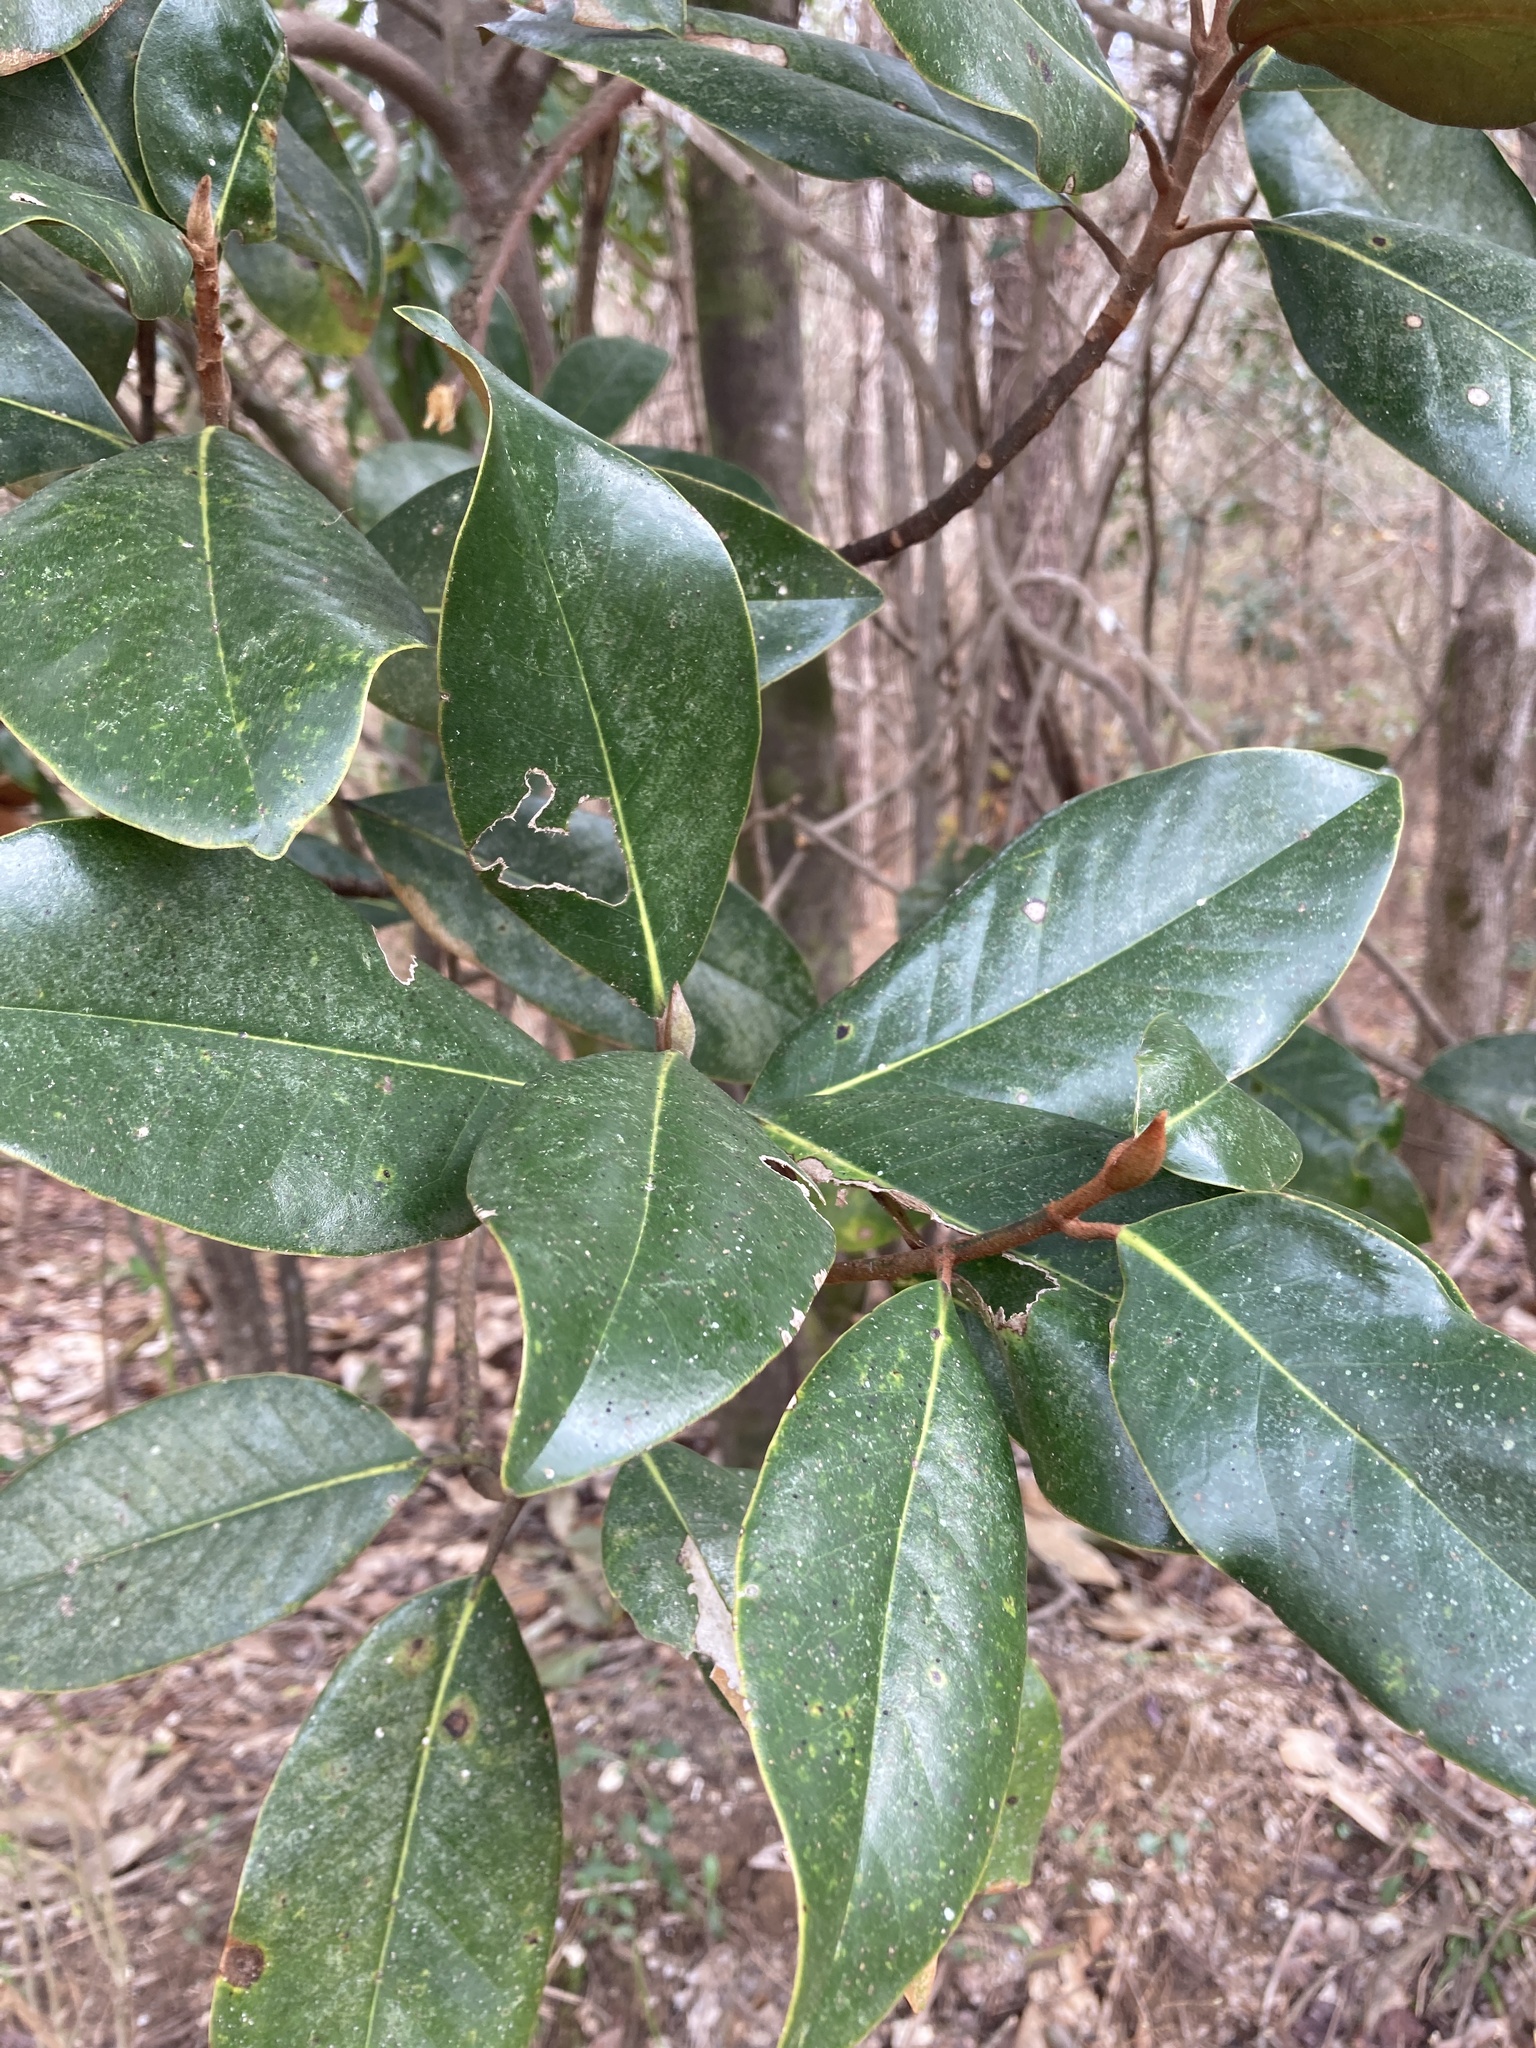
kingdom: Plantae
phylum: Tracheophyta
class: Magnoliopsida
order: Magnoliales
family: Magnoliaceae
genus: Magnolia
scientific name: Magnolia grandiflora
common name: Southern magnolia
